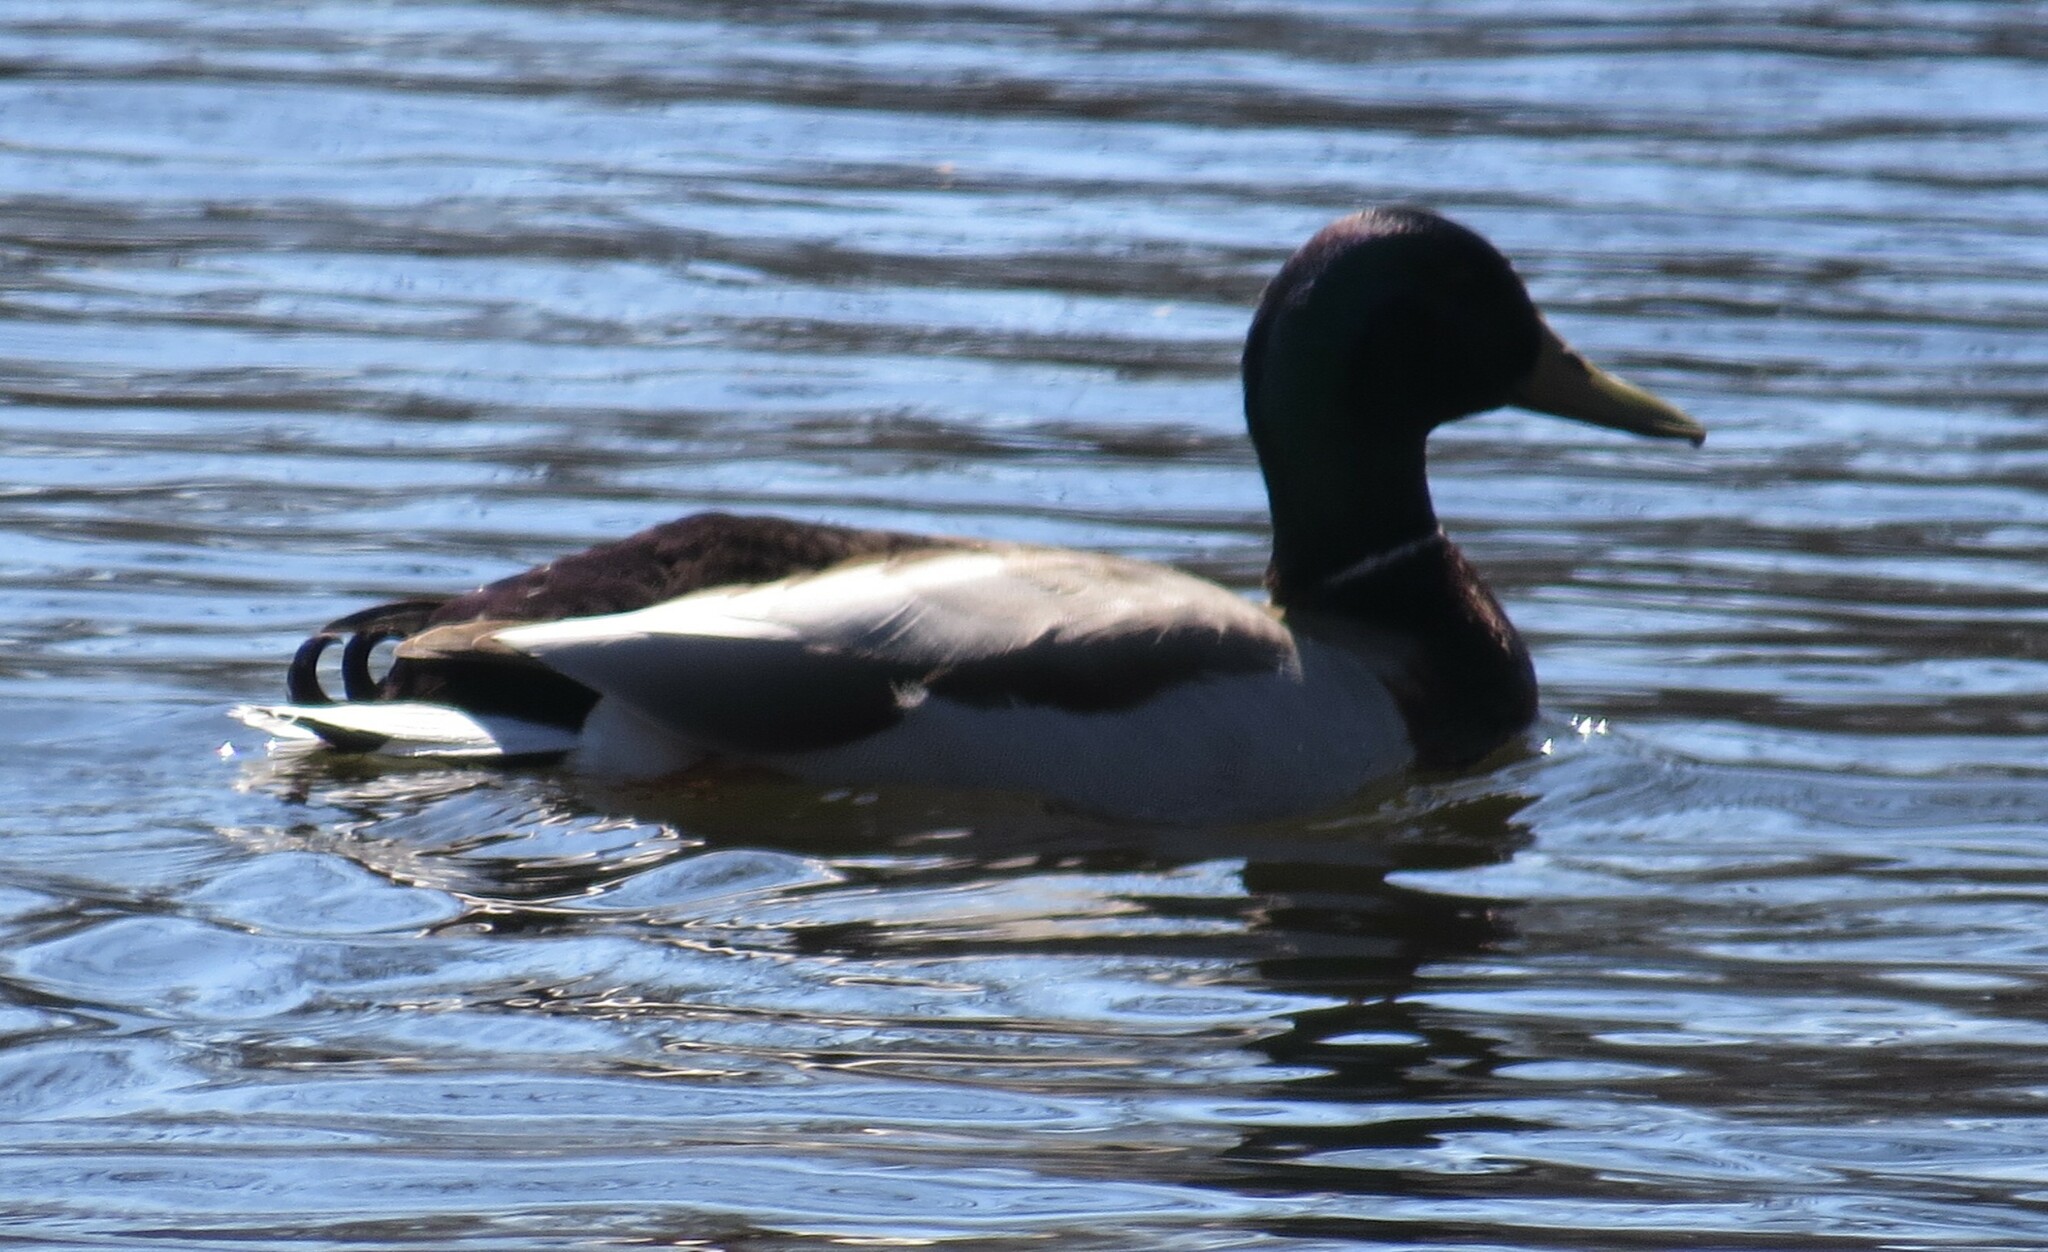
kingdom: Animalia
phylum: Chordata
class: Aves
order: Anseriformes
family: Anatidae
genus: Anas
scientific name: Anas platyrhynchos
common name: Mallard
